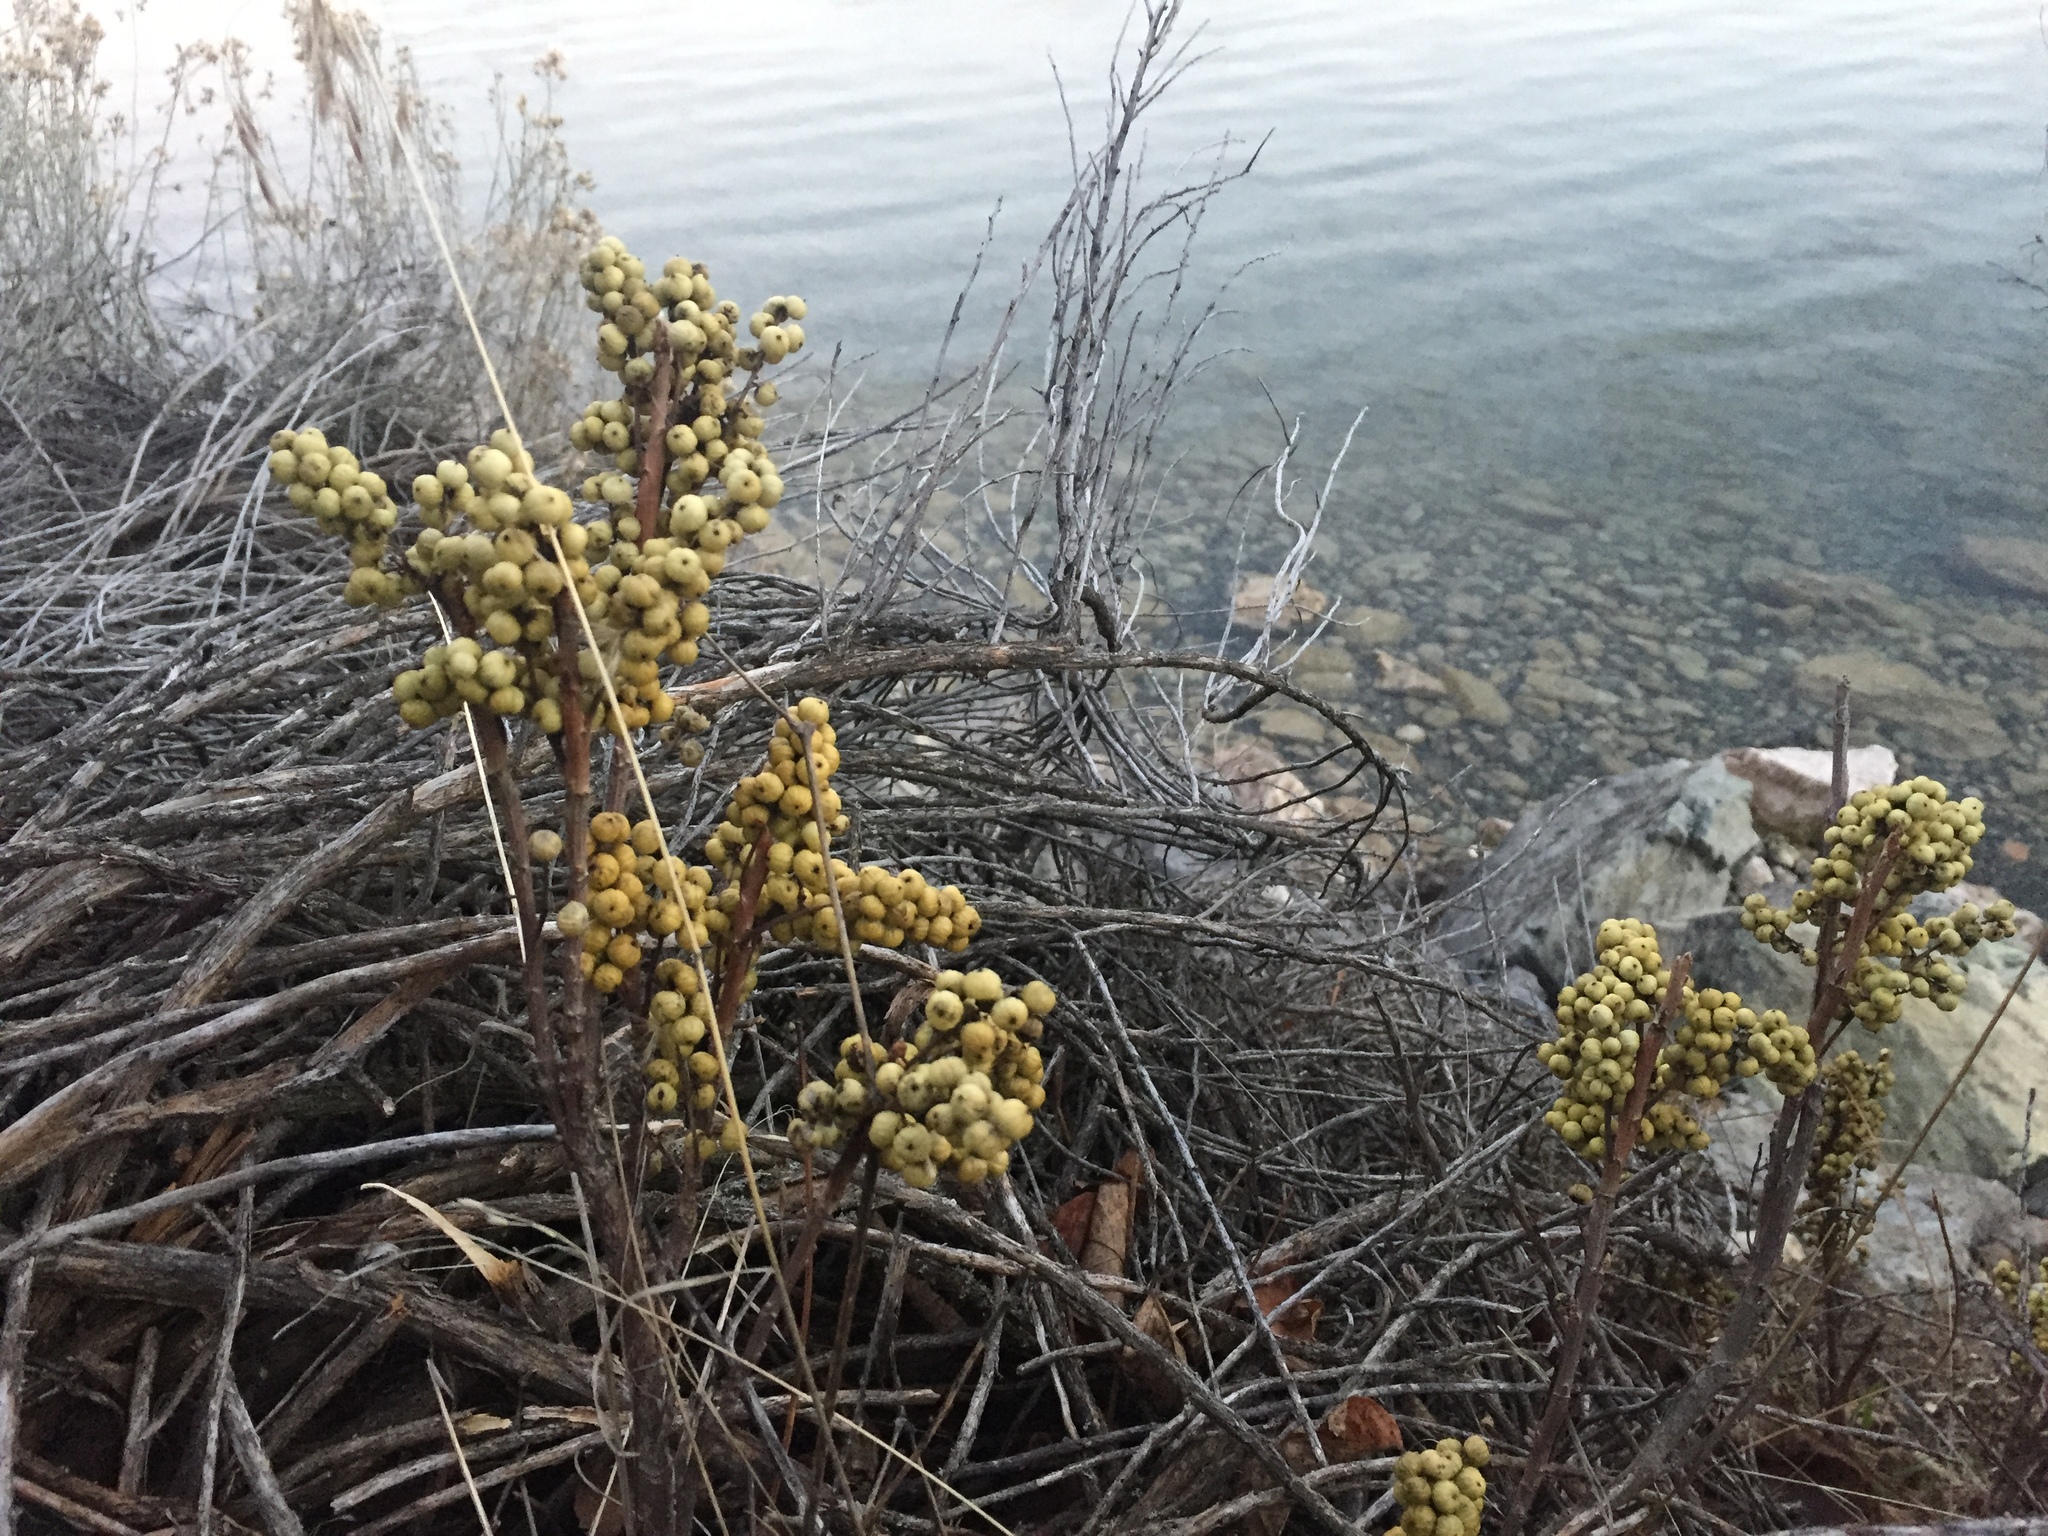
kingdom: Plantae
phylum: Tracheophyta
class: Magnoliopsida
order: Sapindales
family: Anacardiaceae
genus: Toxicodendron
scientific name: Toxicodendron rydbergii
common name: Rydberg's poison-ivy
